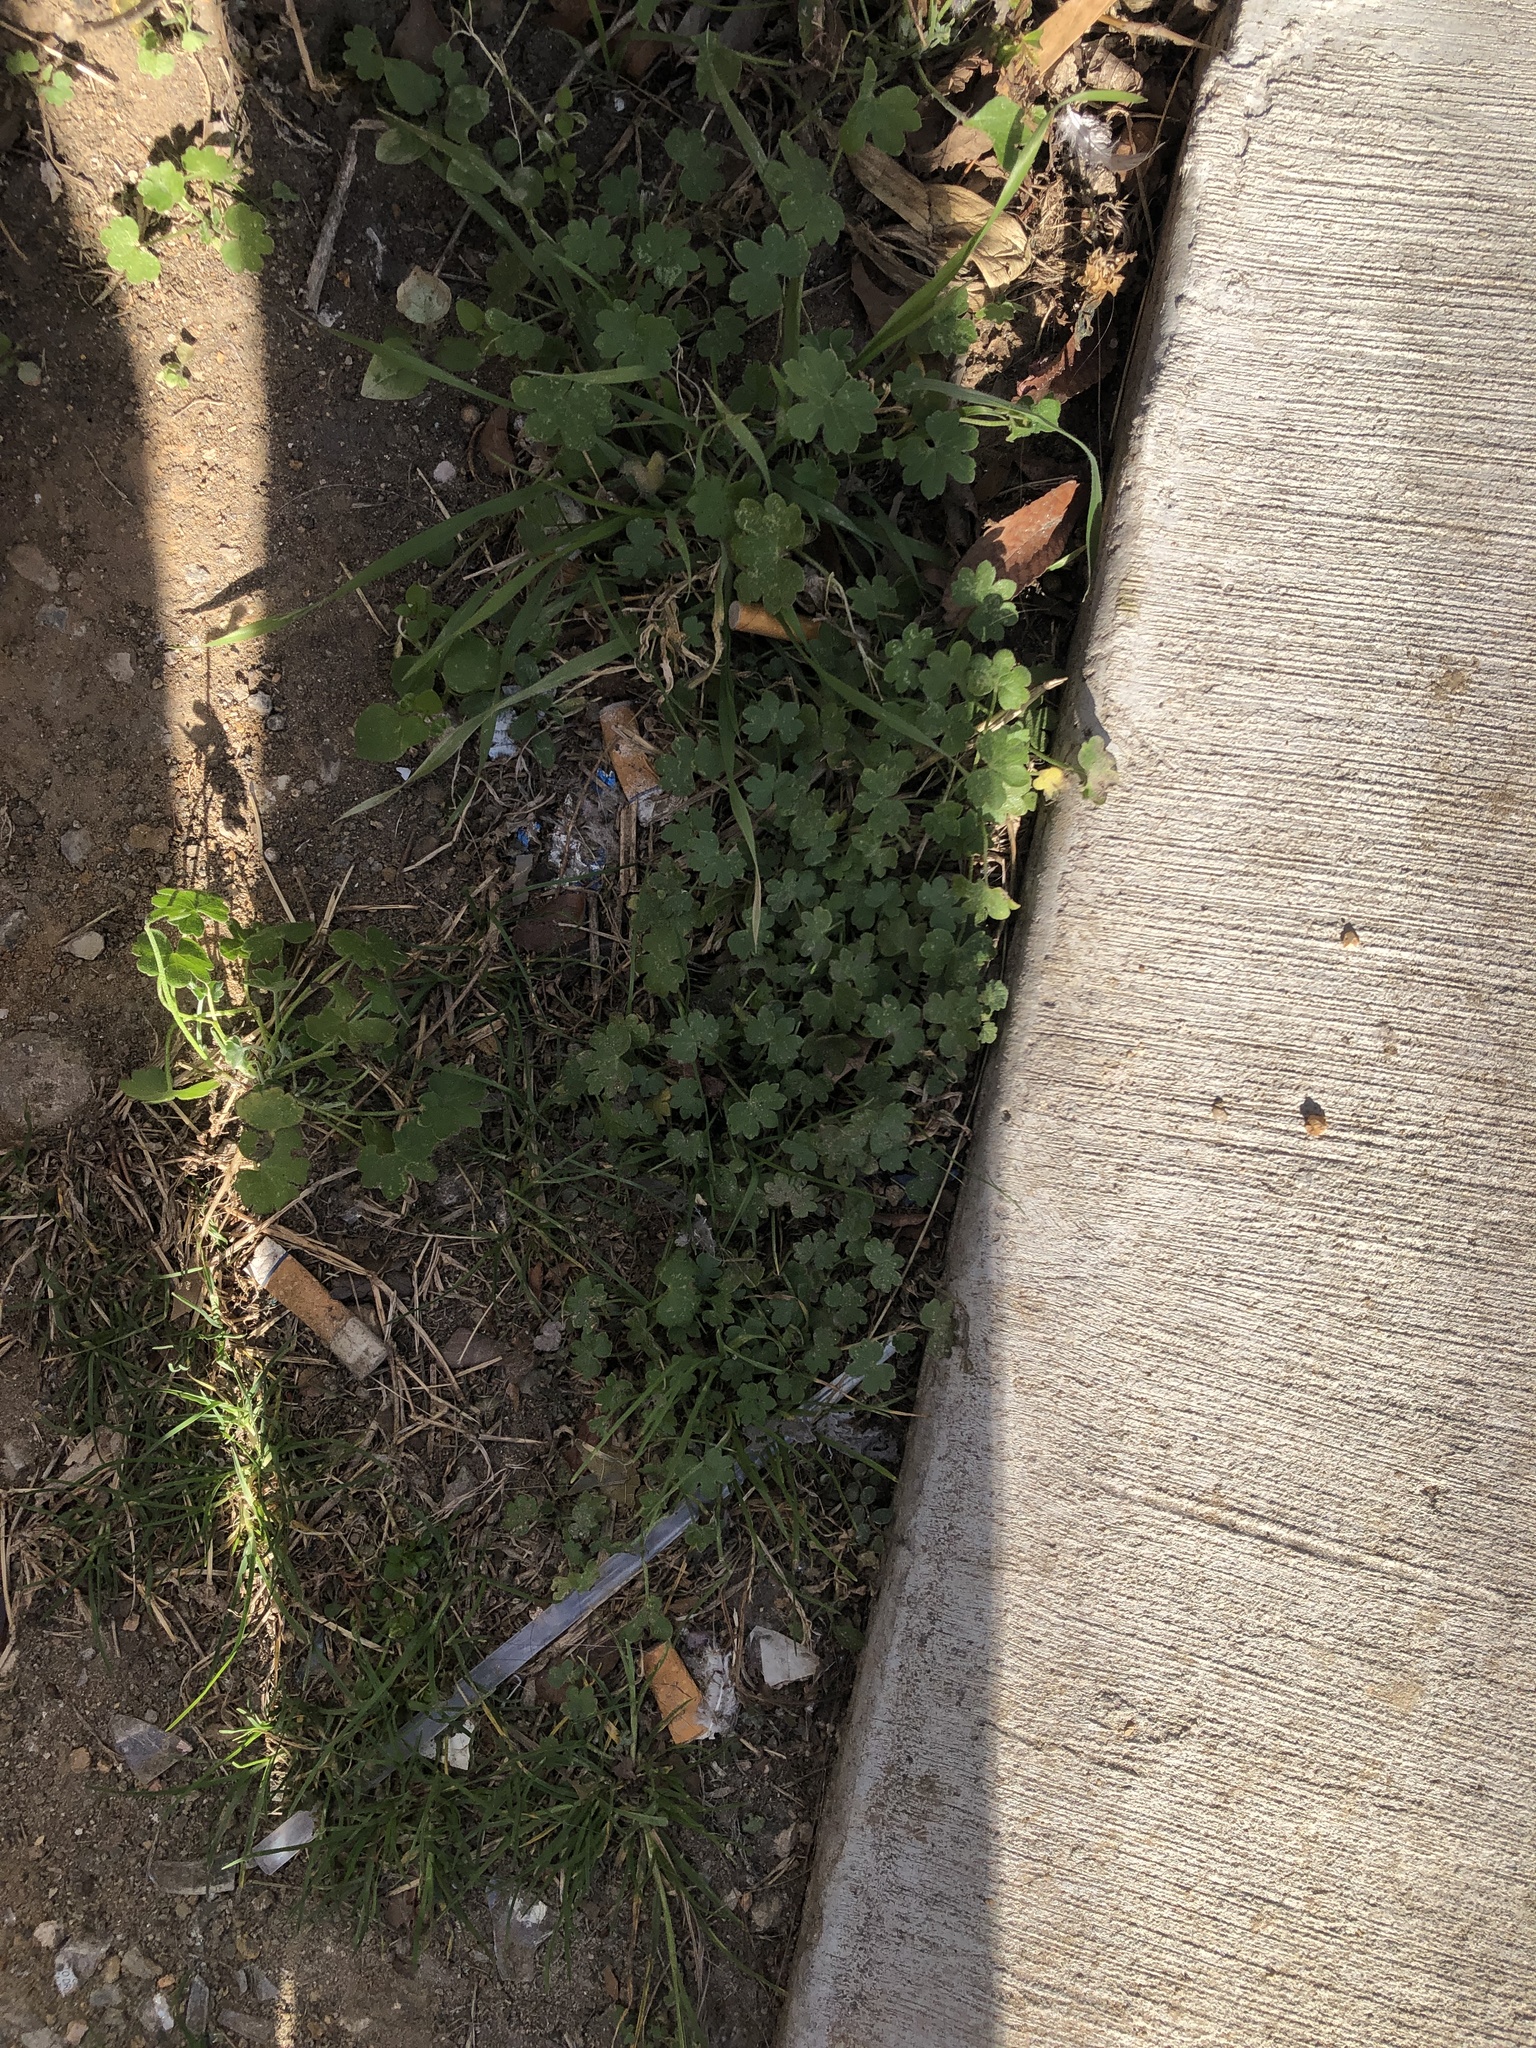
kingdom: Plantae
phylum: Tracheophyta
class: Magnoliopsida
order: Apiales
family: Apiaceae
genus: Bowlesia
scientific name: Bowlesia incana
